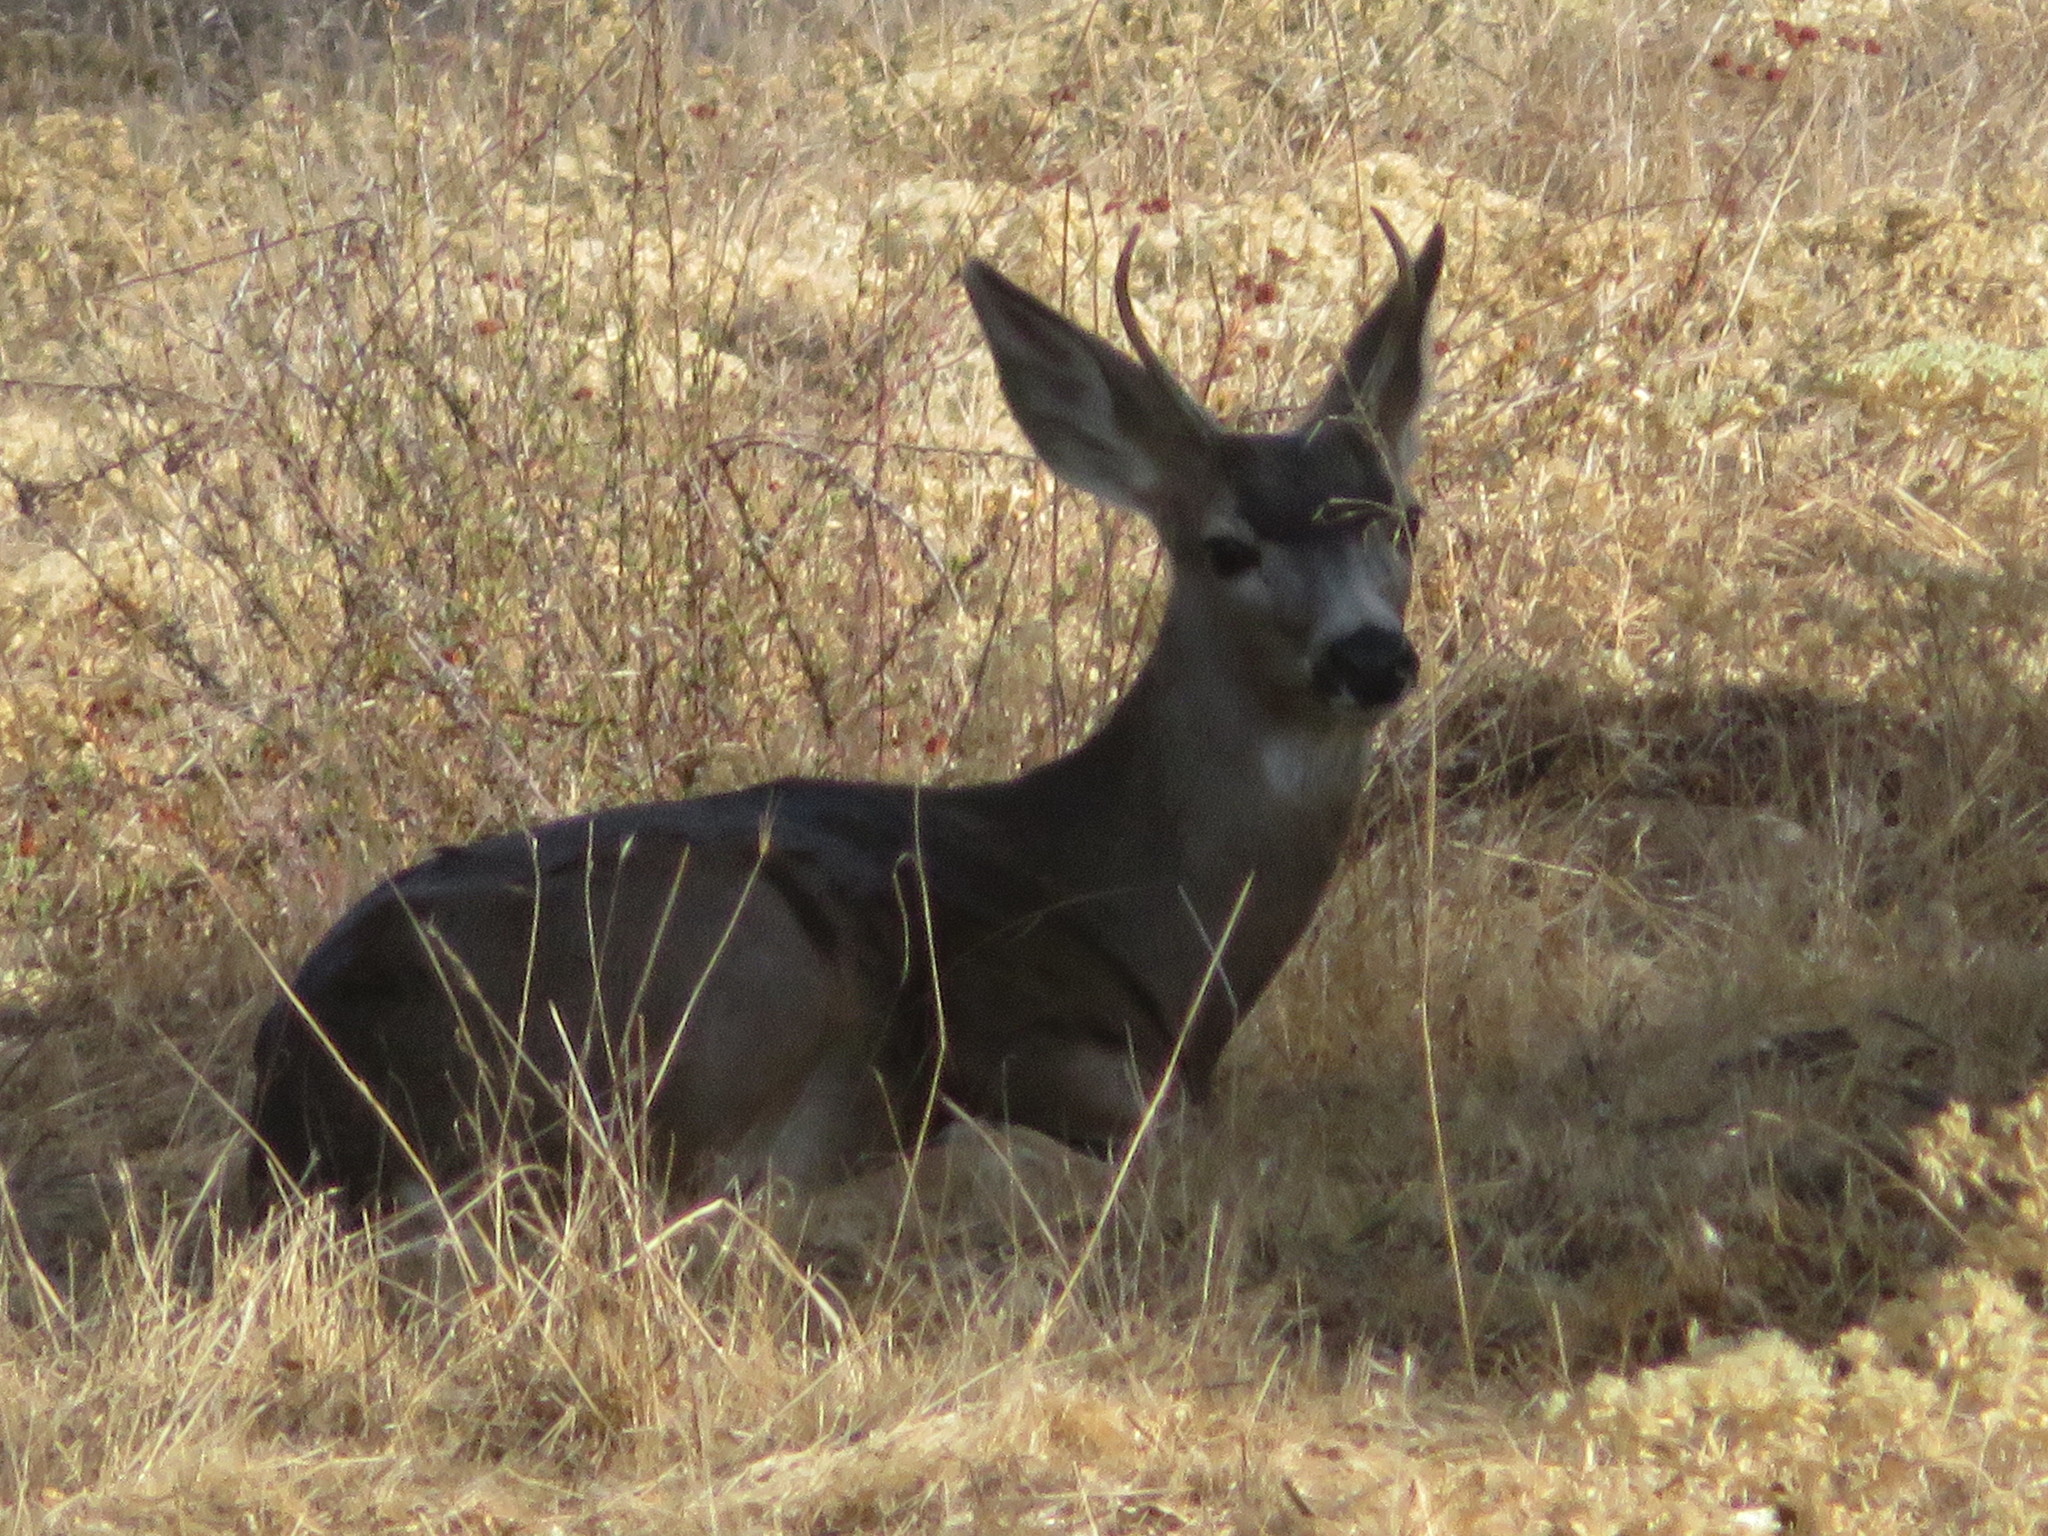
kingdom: Animalia
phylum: Chordata
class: Mammalia
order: Artiodactyla
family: Cervidae
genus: Odocoileus
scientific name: Odocoileus hemionus
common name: Mule deer
